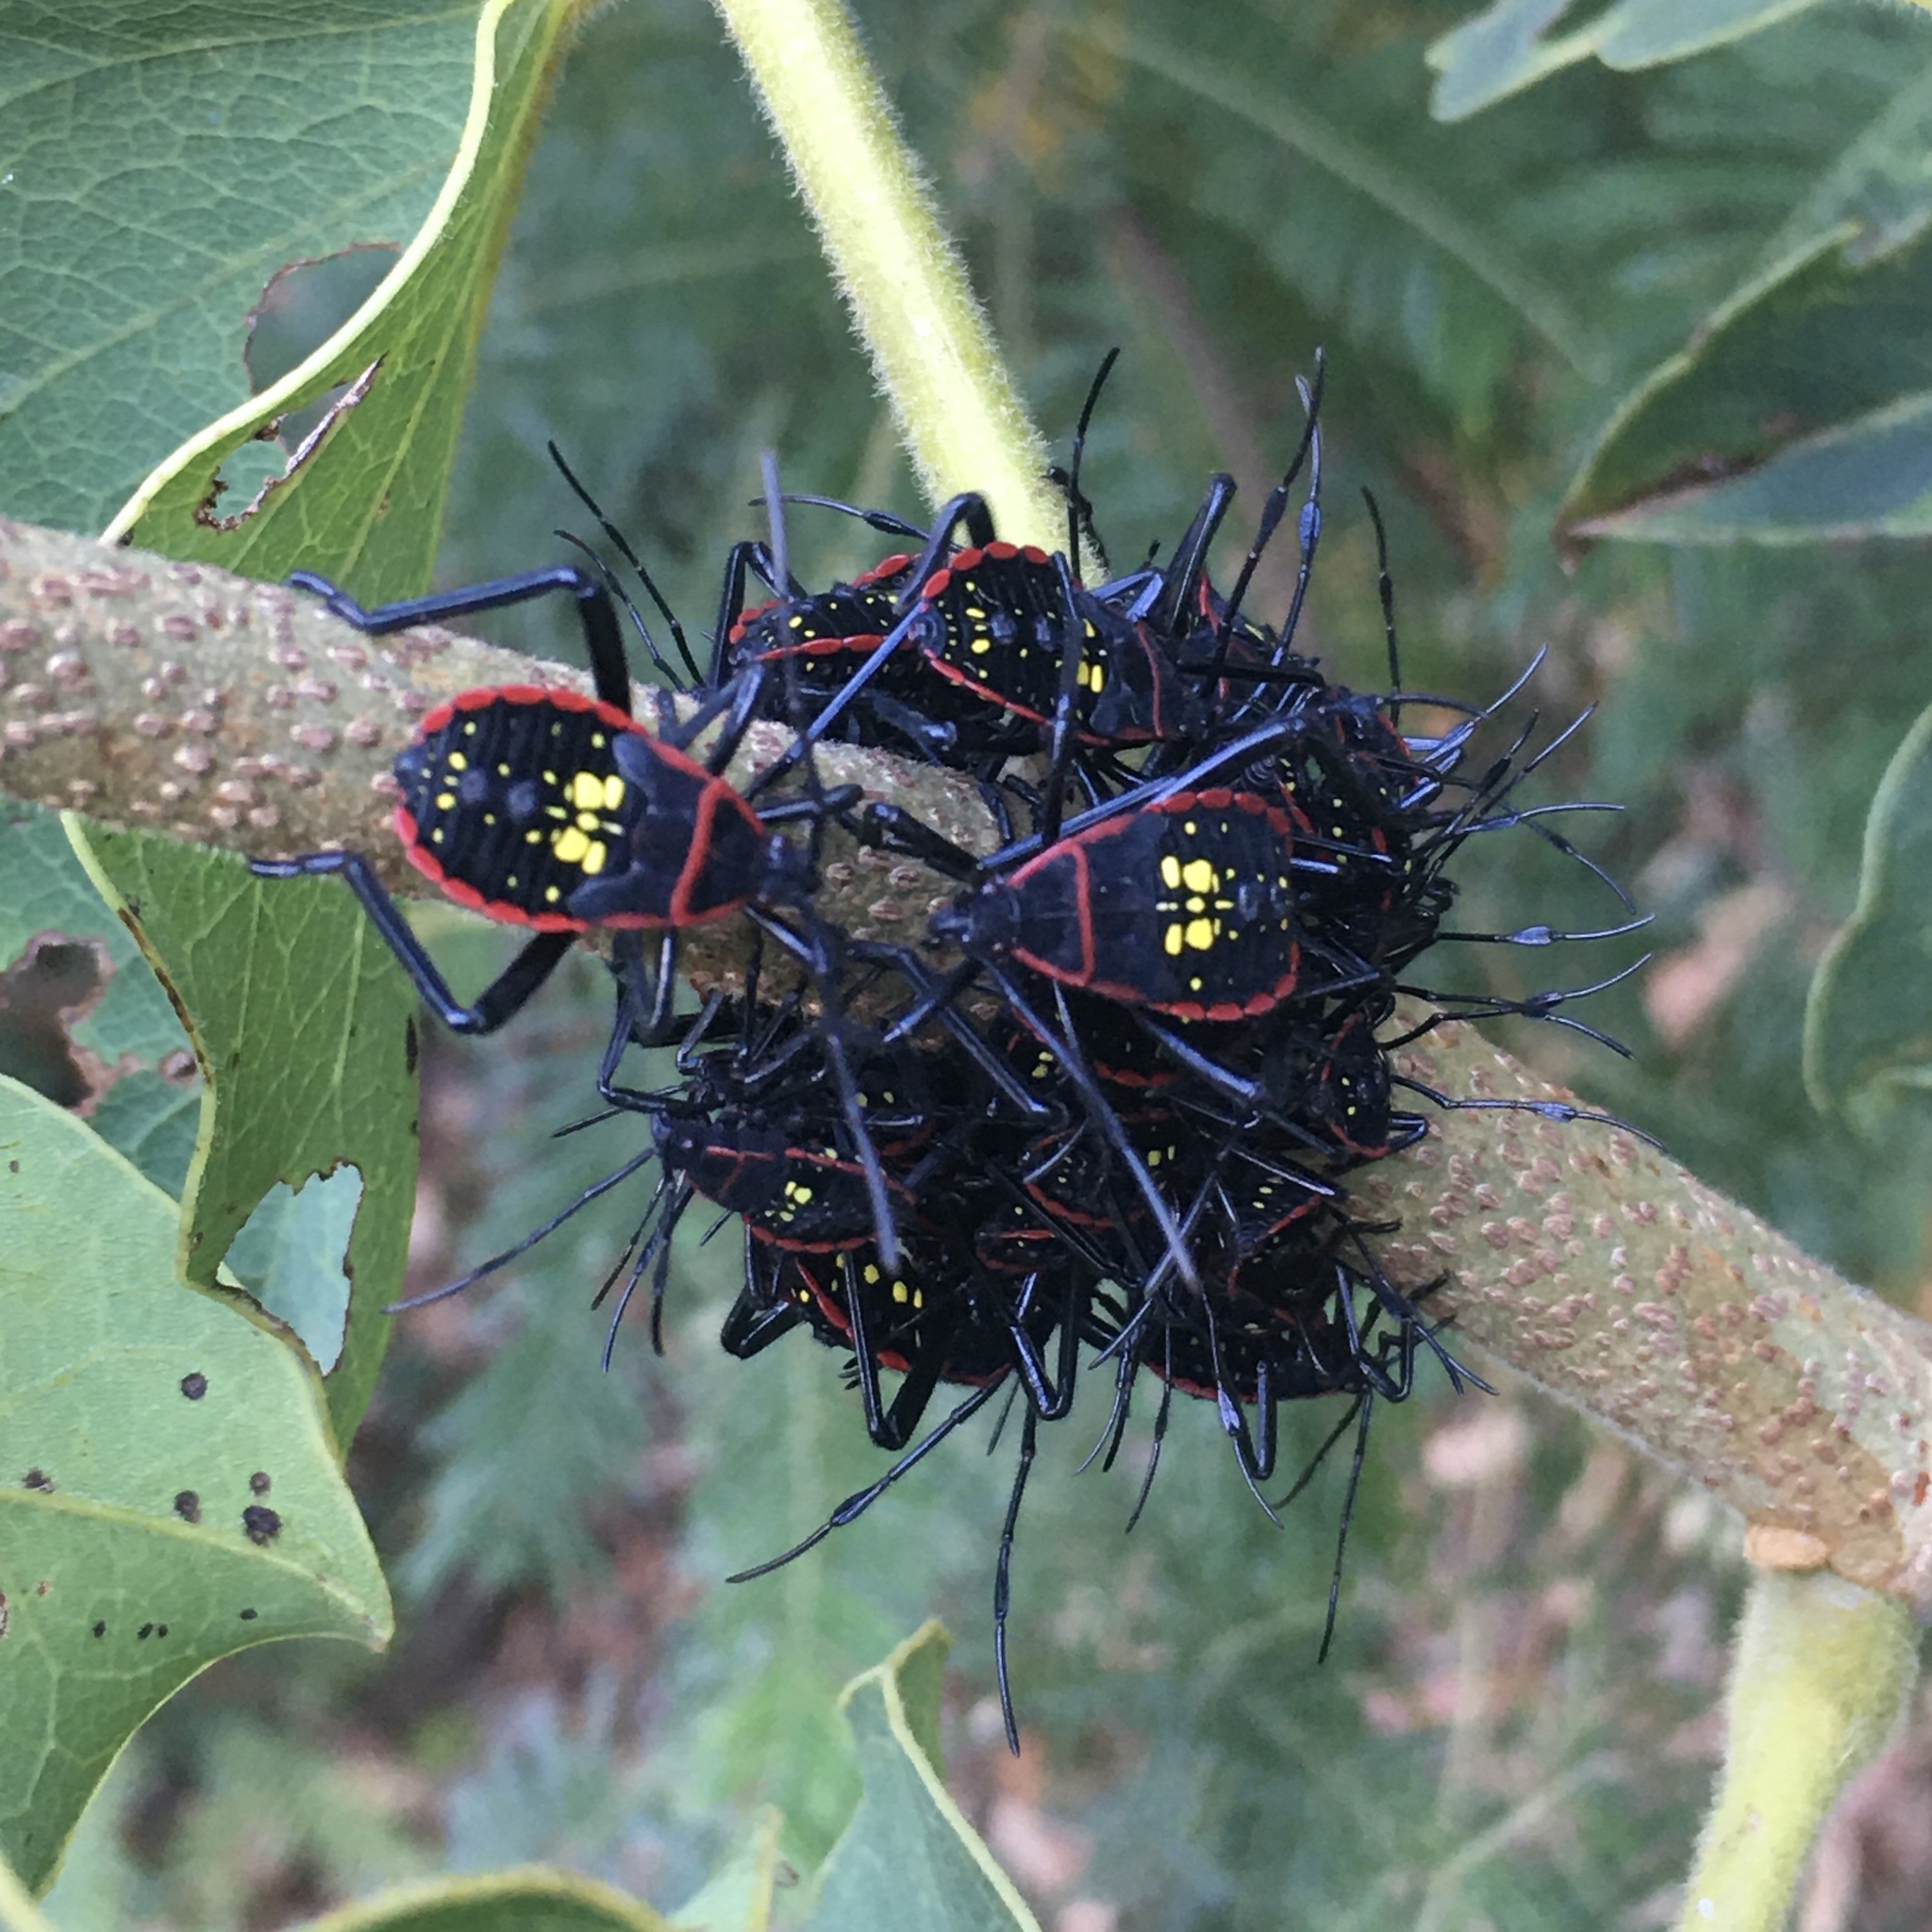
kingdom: Animalia
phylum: Arthropoda
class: Insecta
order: Hemiptera
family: Coreidae
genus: Pachylis
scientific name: Pachylis pharaonis
